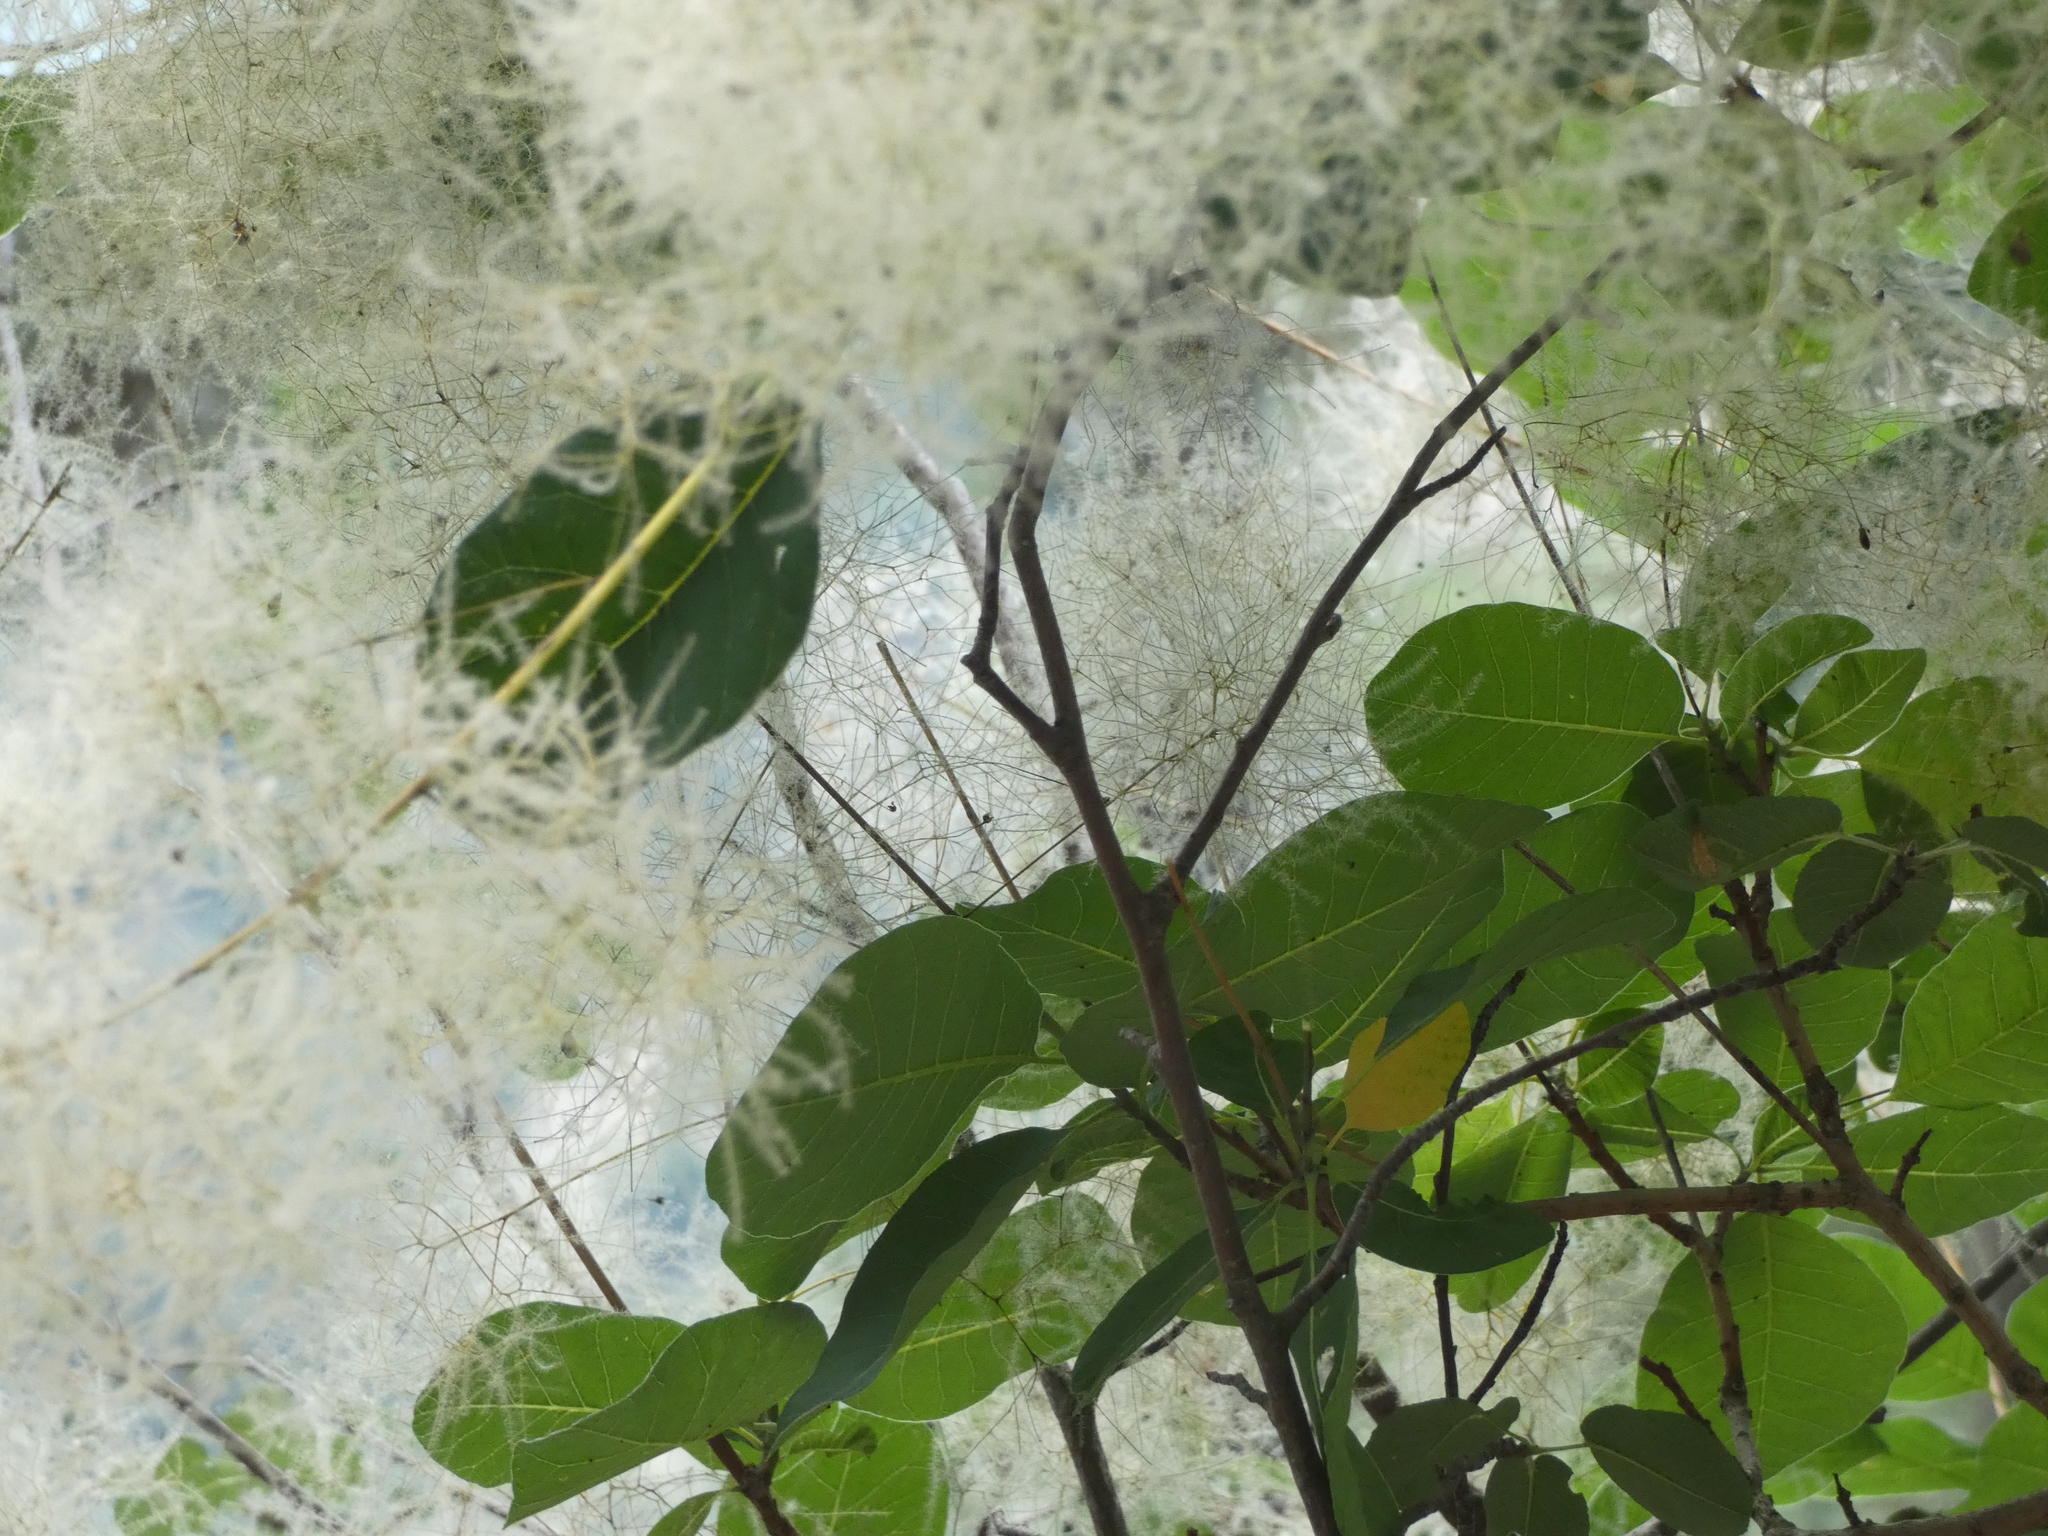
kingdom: Plantae
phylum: Tracheophyta
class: Magnoliopsida
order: Sapindales
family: Anacardiaceae
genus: Cotinus
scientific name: Cotinus coggygria
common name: Smoke-tree
